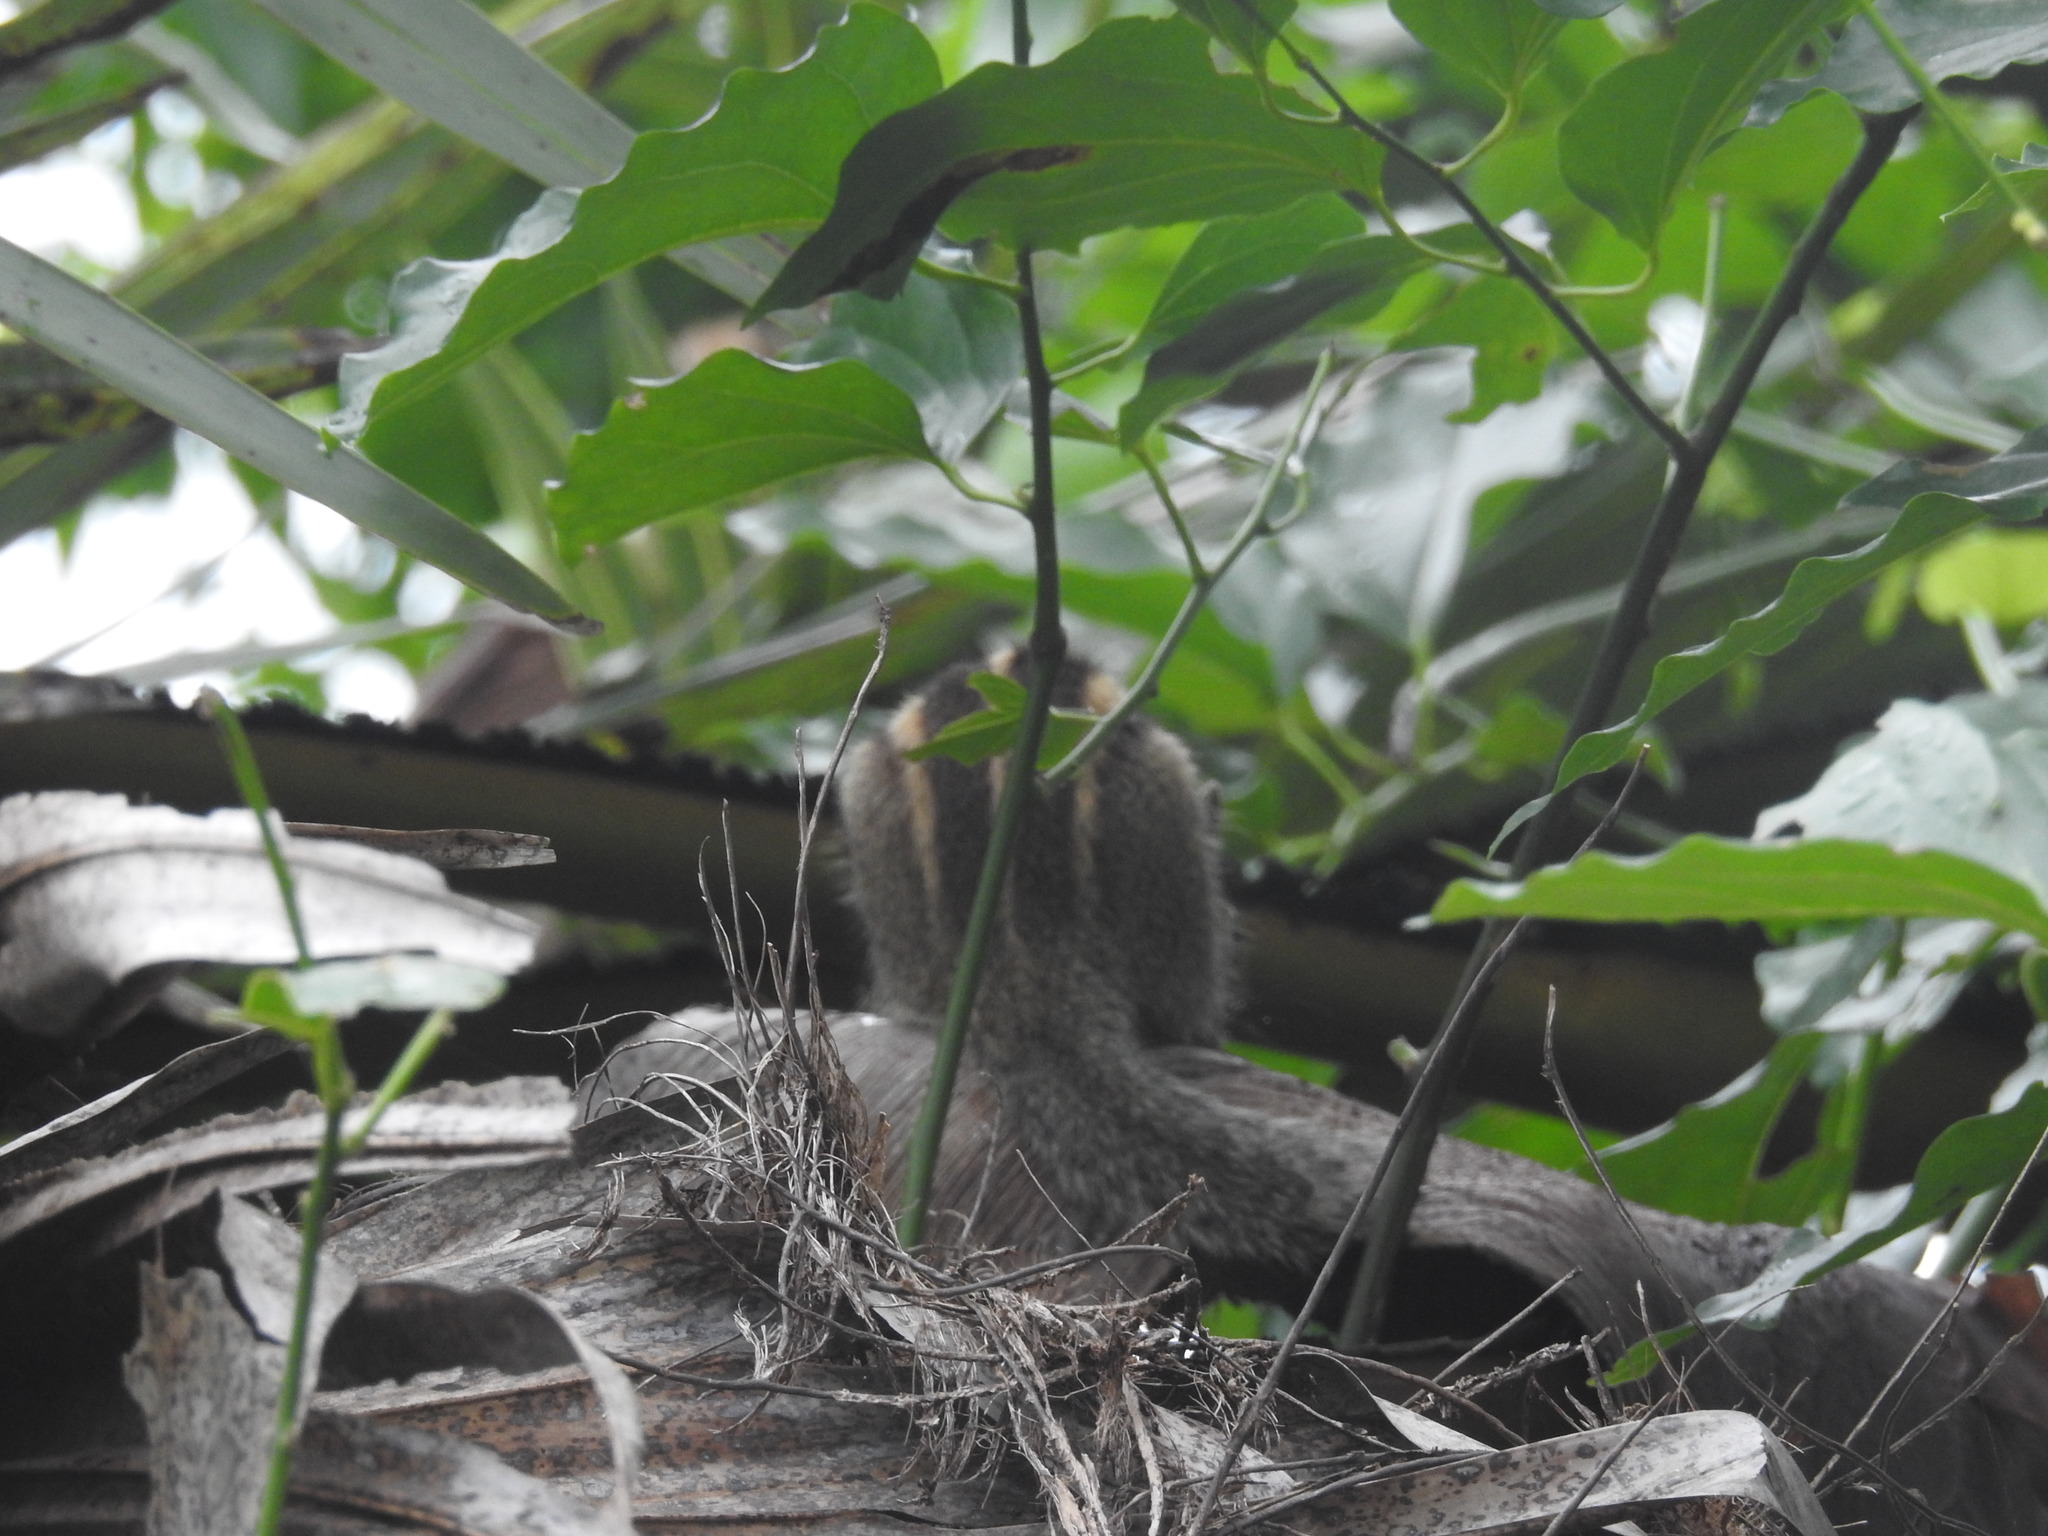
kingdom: Animalia
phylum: Chordata
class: Mammalia
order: Rodentia
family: Sciuridae
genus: Funambulus
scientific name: Funambulus palmarum
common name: Indian palm squirrel
